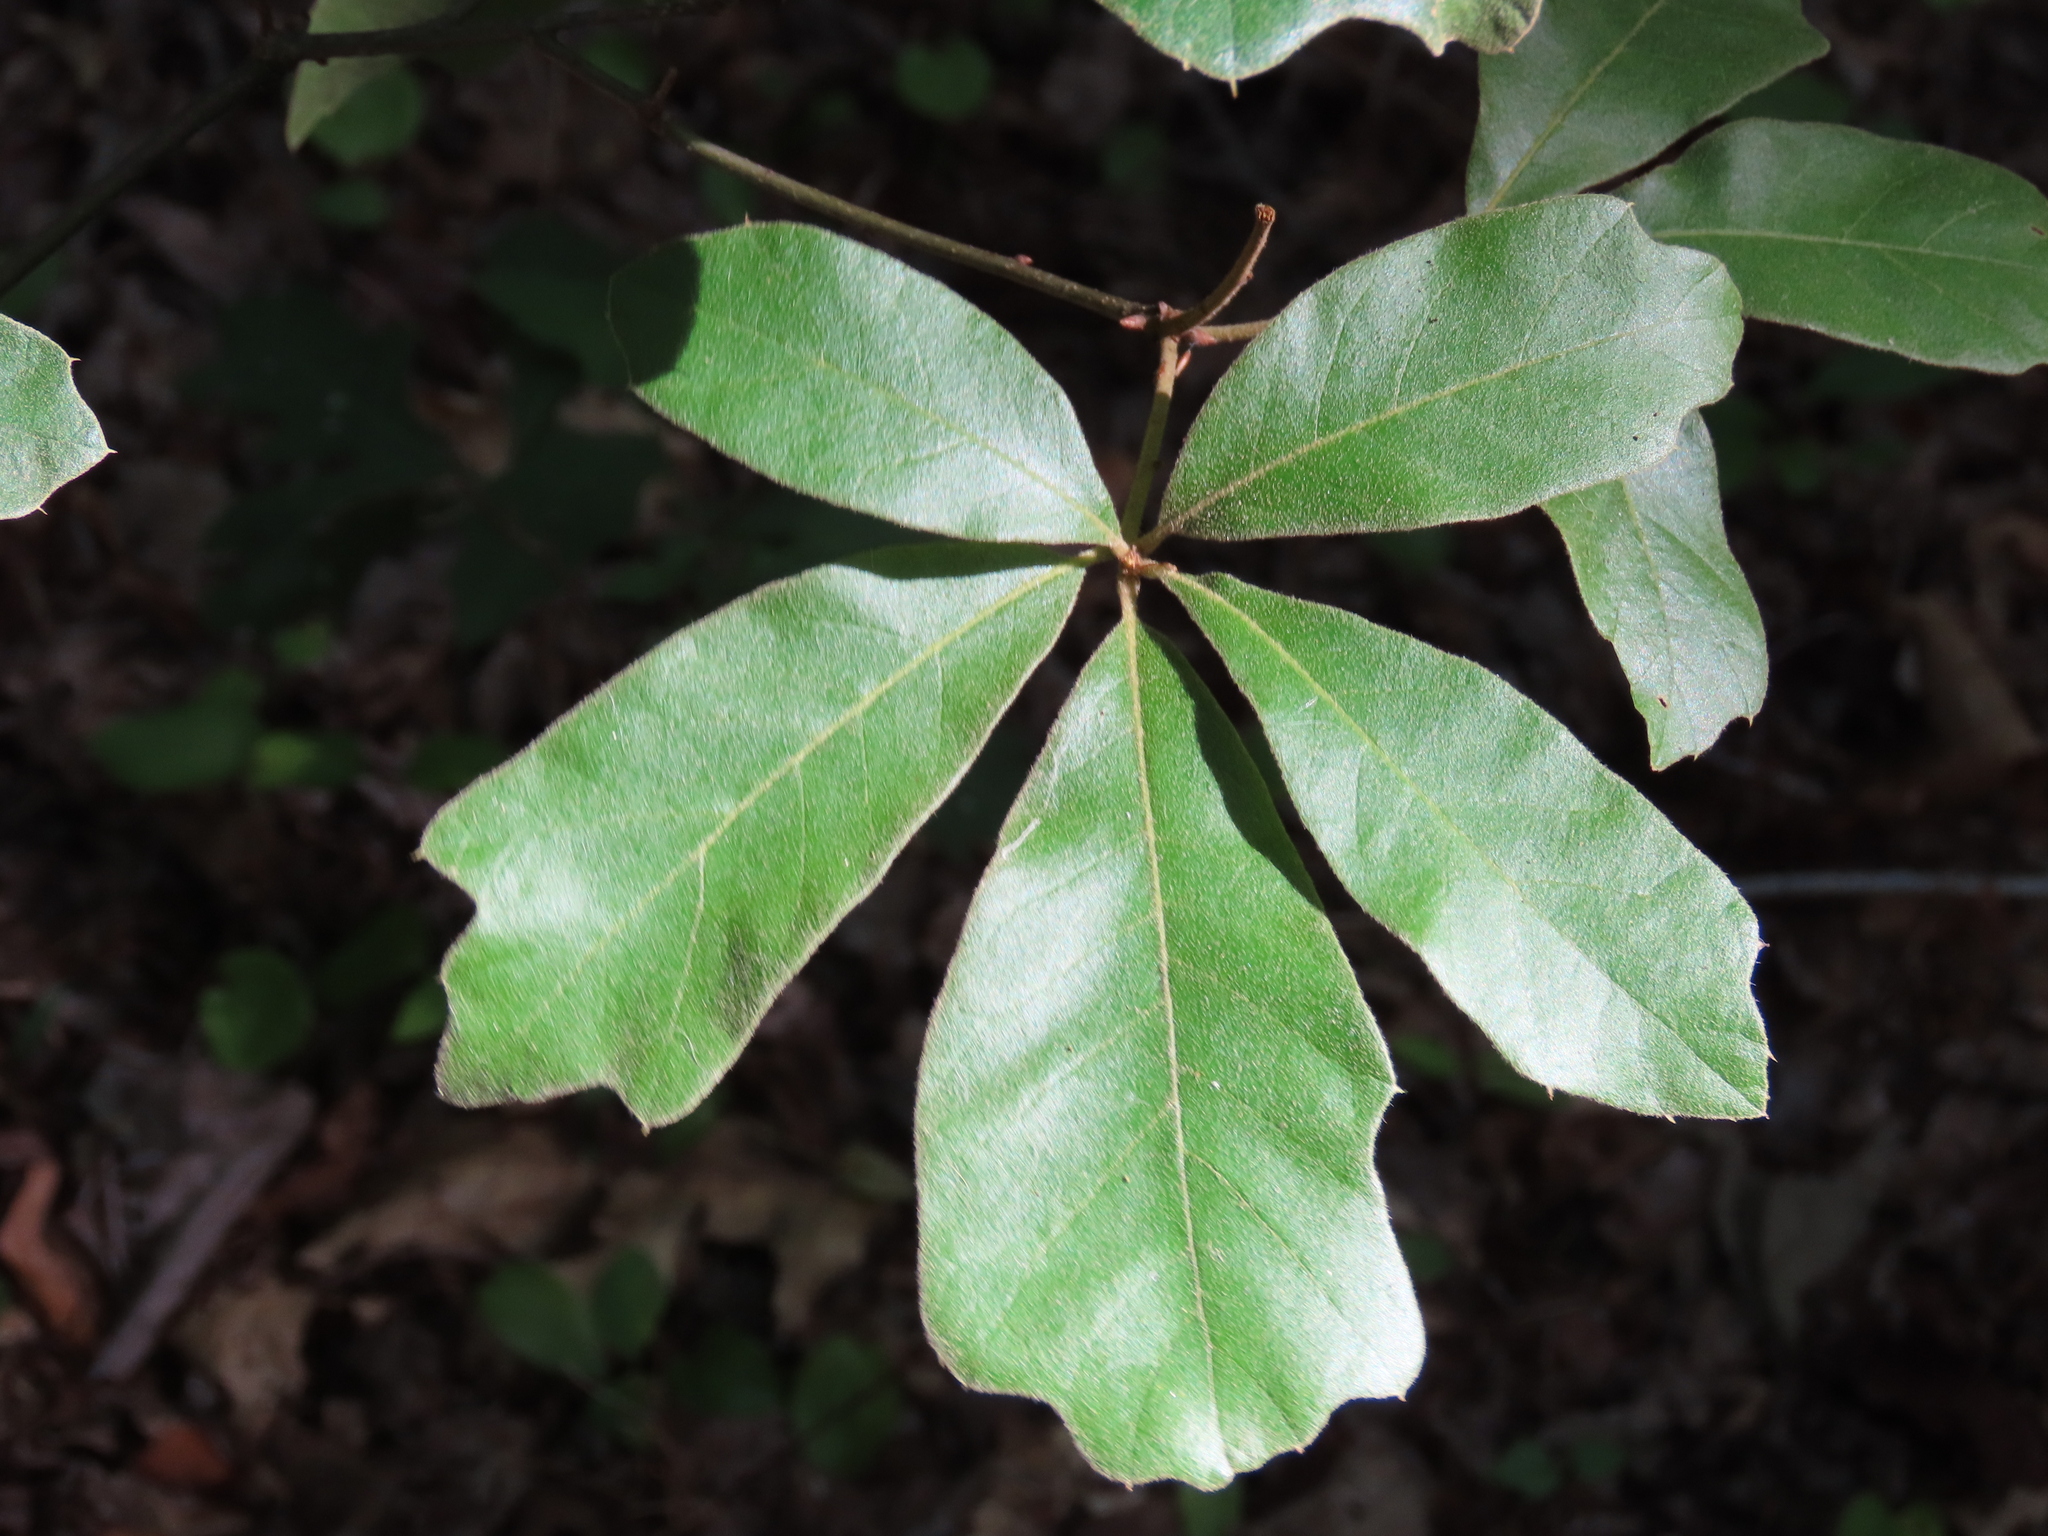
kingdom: Plantae
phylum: Tracheophyta
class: Magnoliopsida
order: Fagales
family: Fagaceae
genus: Quercus
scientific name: Quercus falcata
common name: Southern red oak
